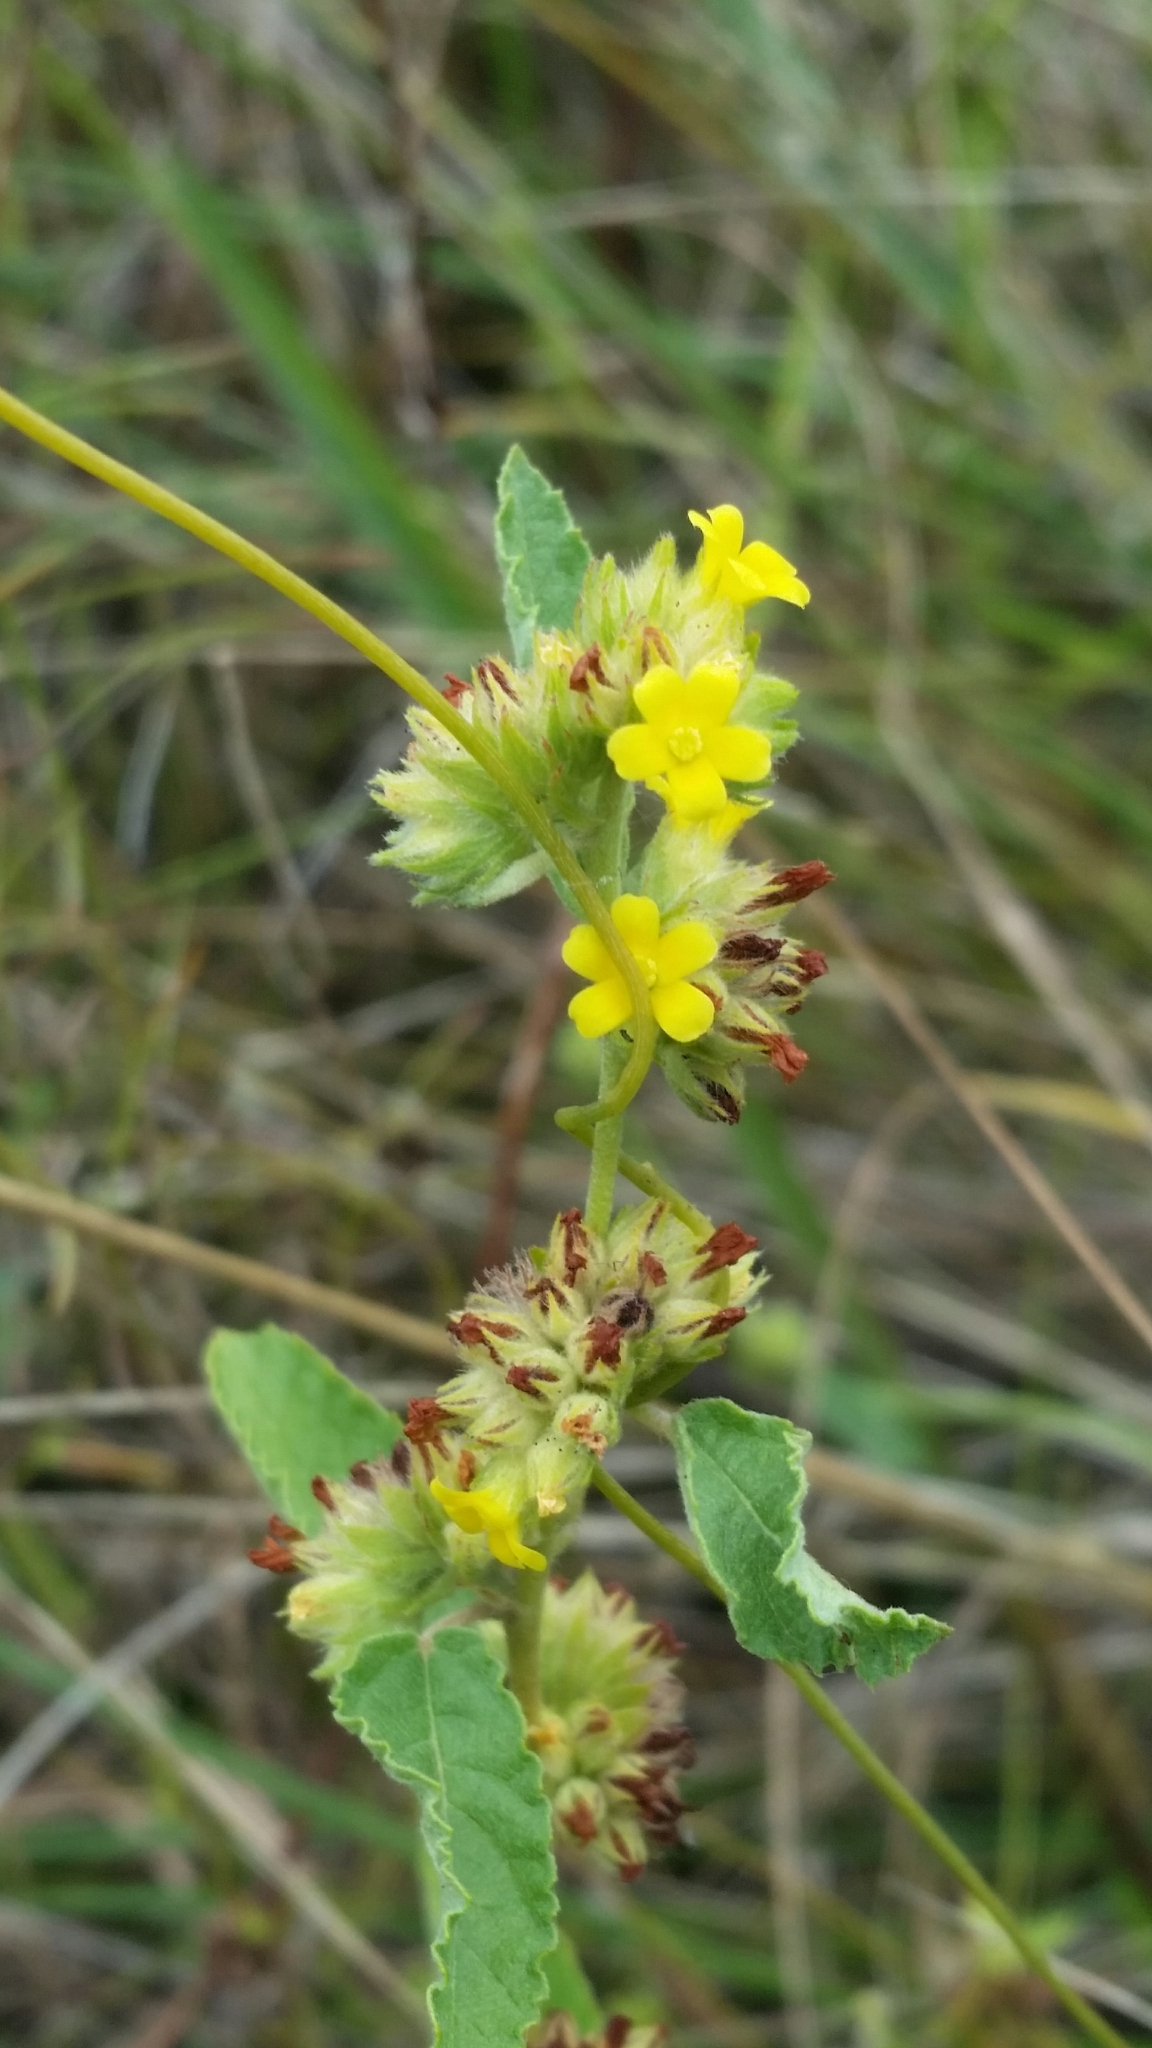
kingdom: Plantae
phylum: Tracheophyta
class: Magnoliopsida
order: Malvales
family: Malvaceae
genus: Waltheria
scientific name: Waltheria indica
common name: Leather-coat
